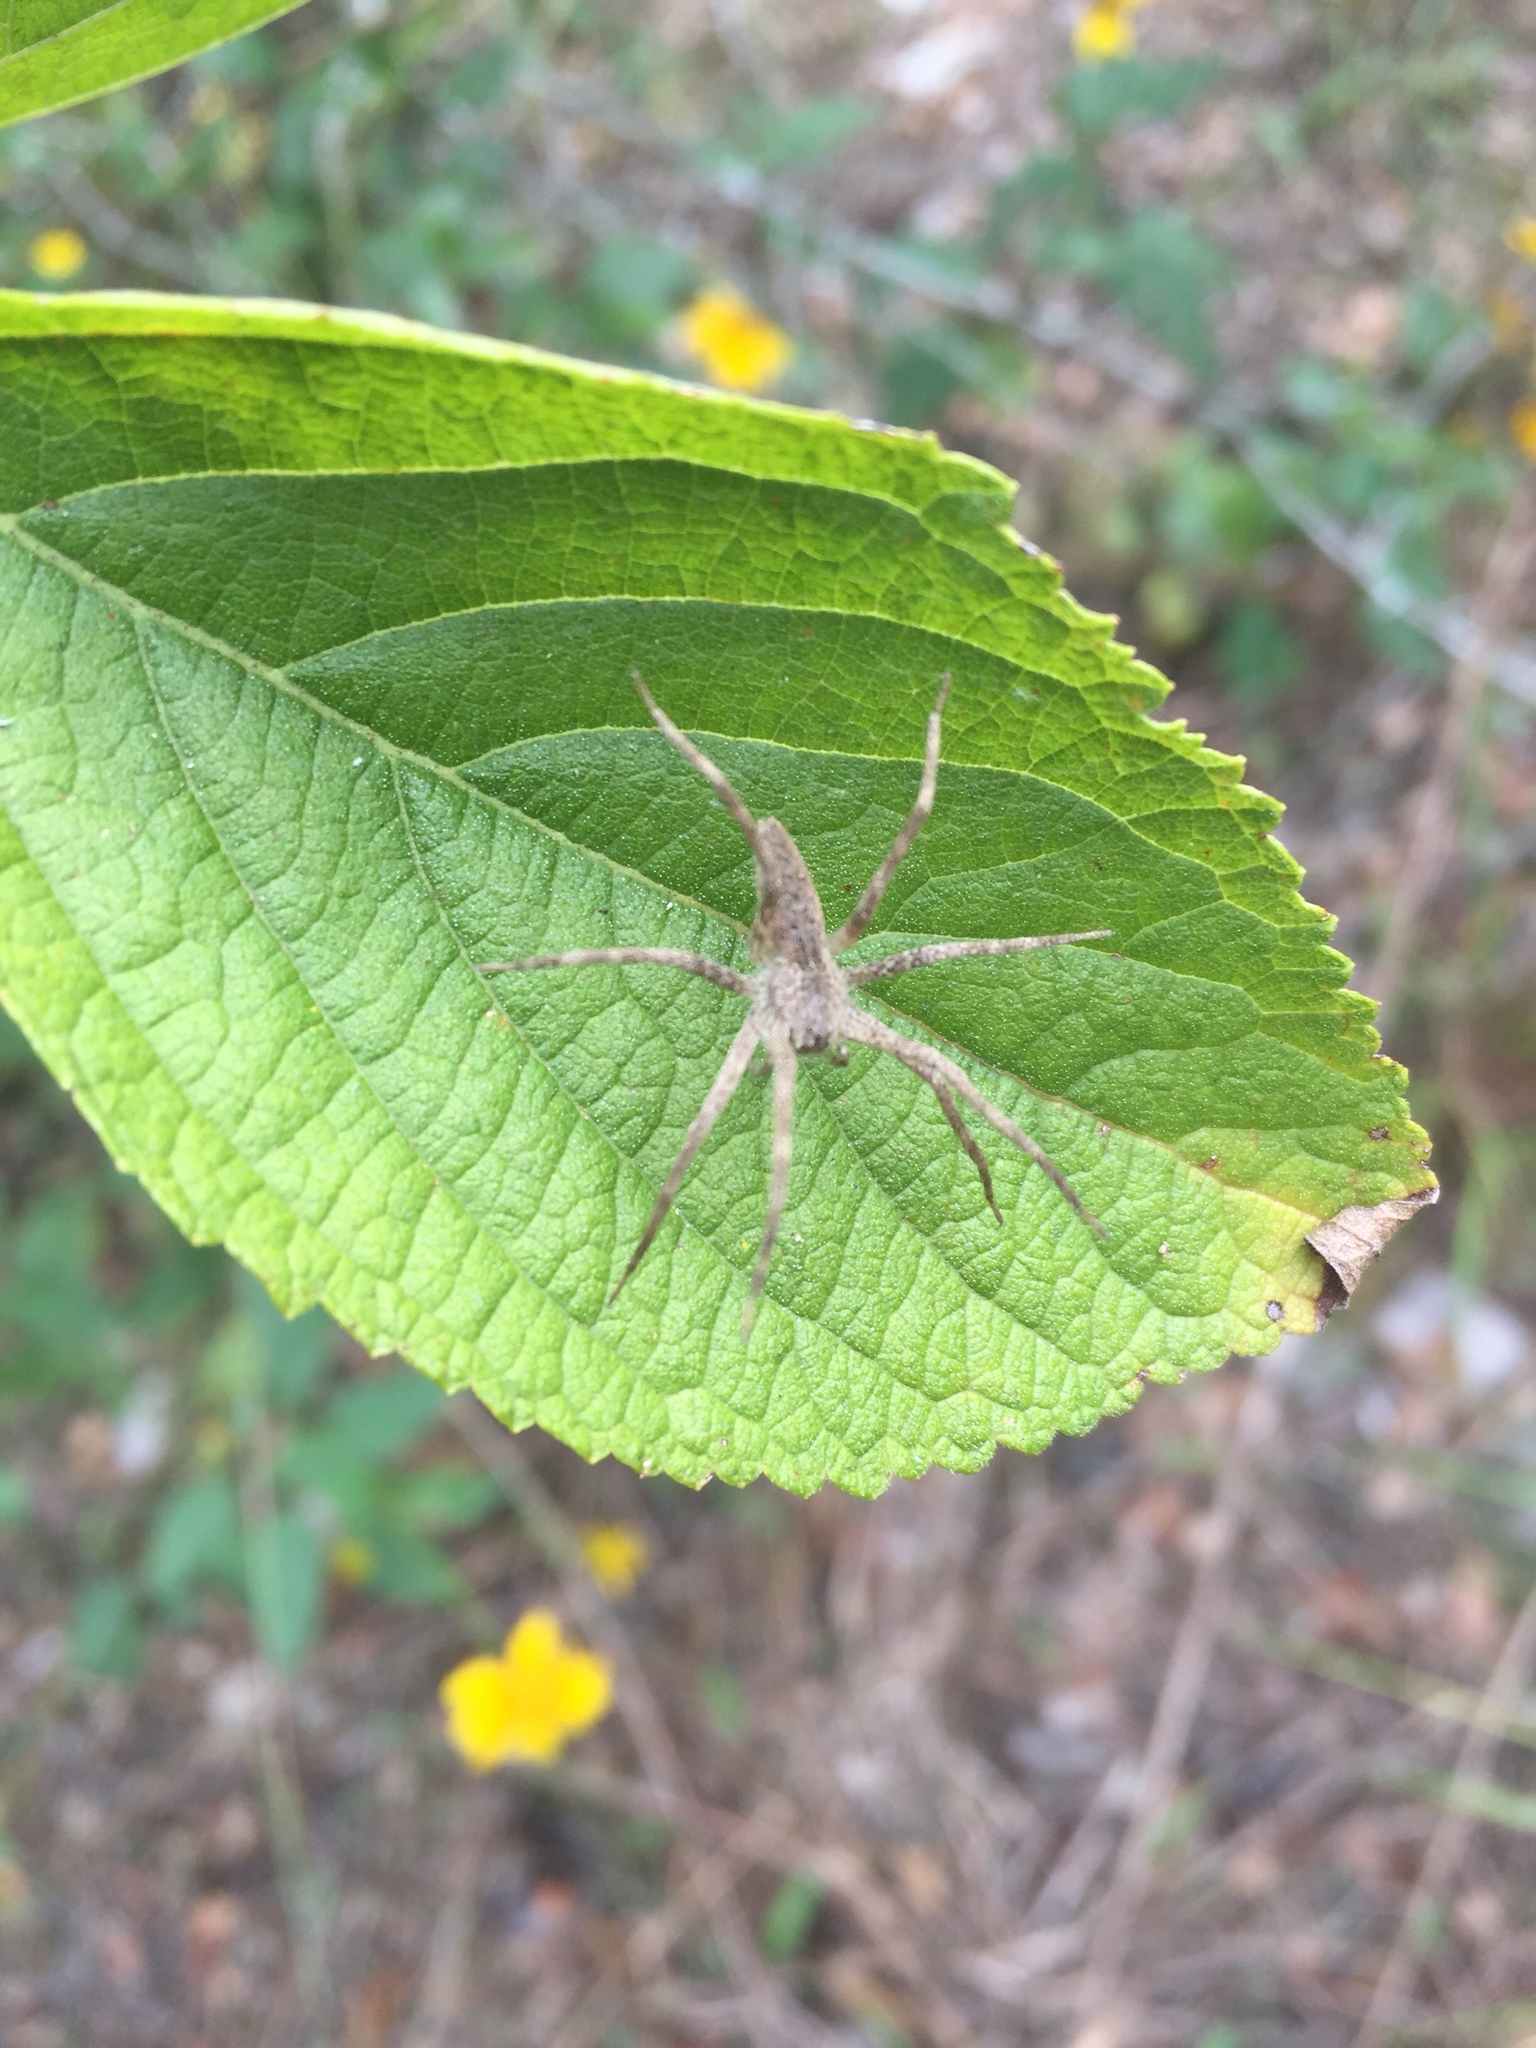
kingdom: Animalia
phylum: Arthropoda
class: Arachnida
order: Araneae
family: Pisauridae
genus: Pisaurina
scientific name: Pisaurina mira
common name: American nursery web spider
